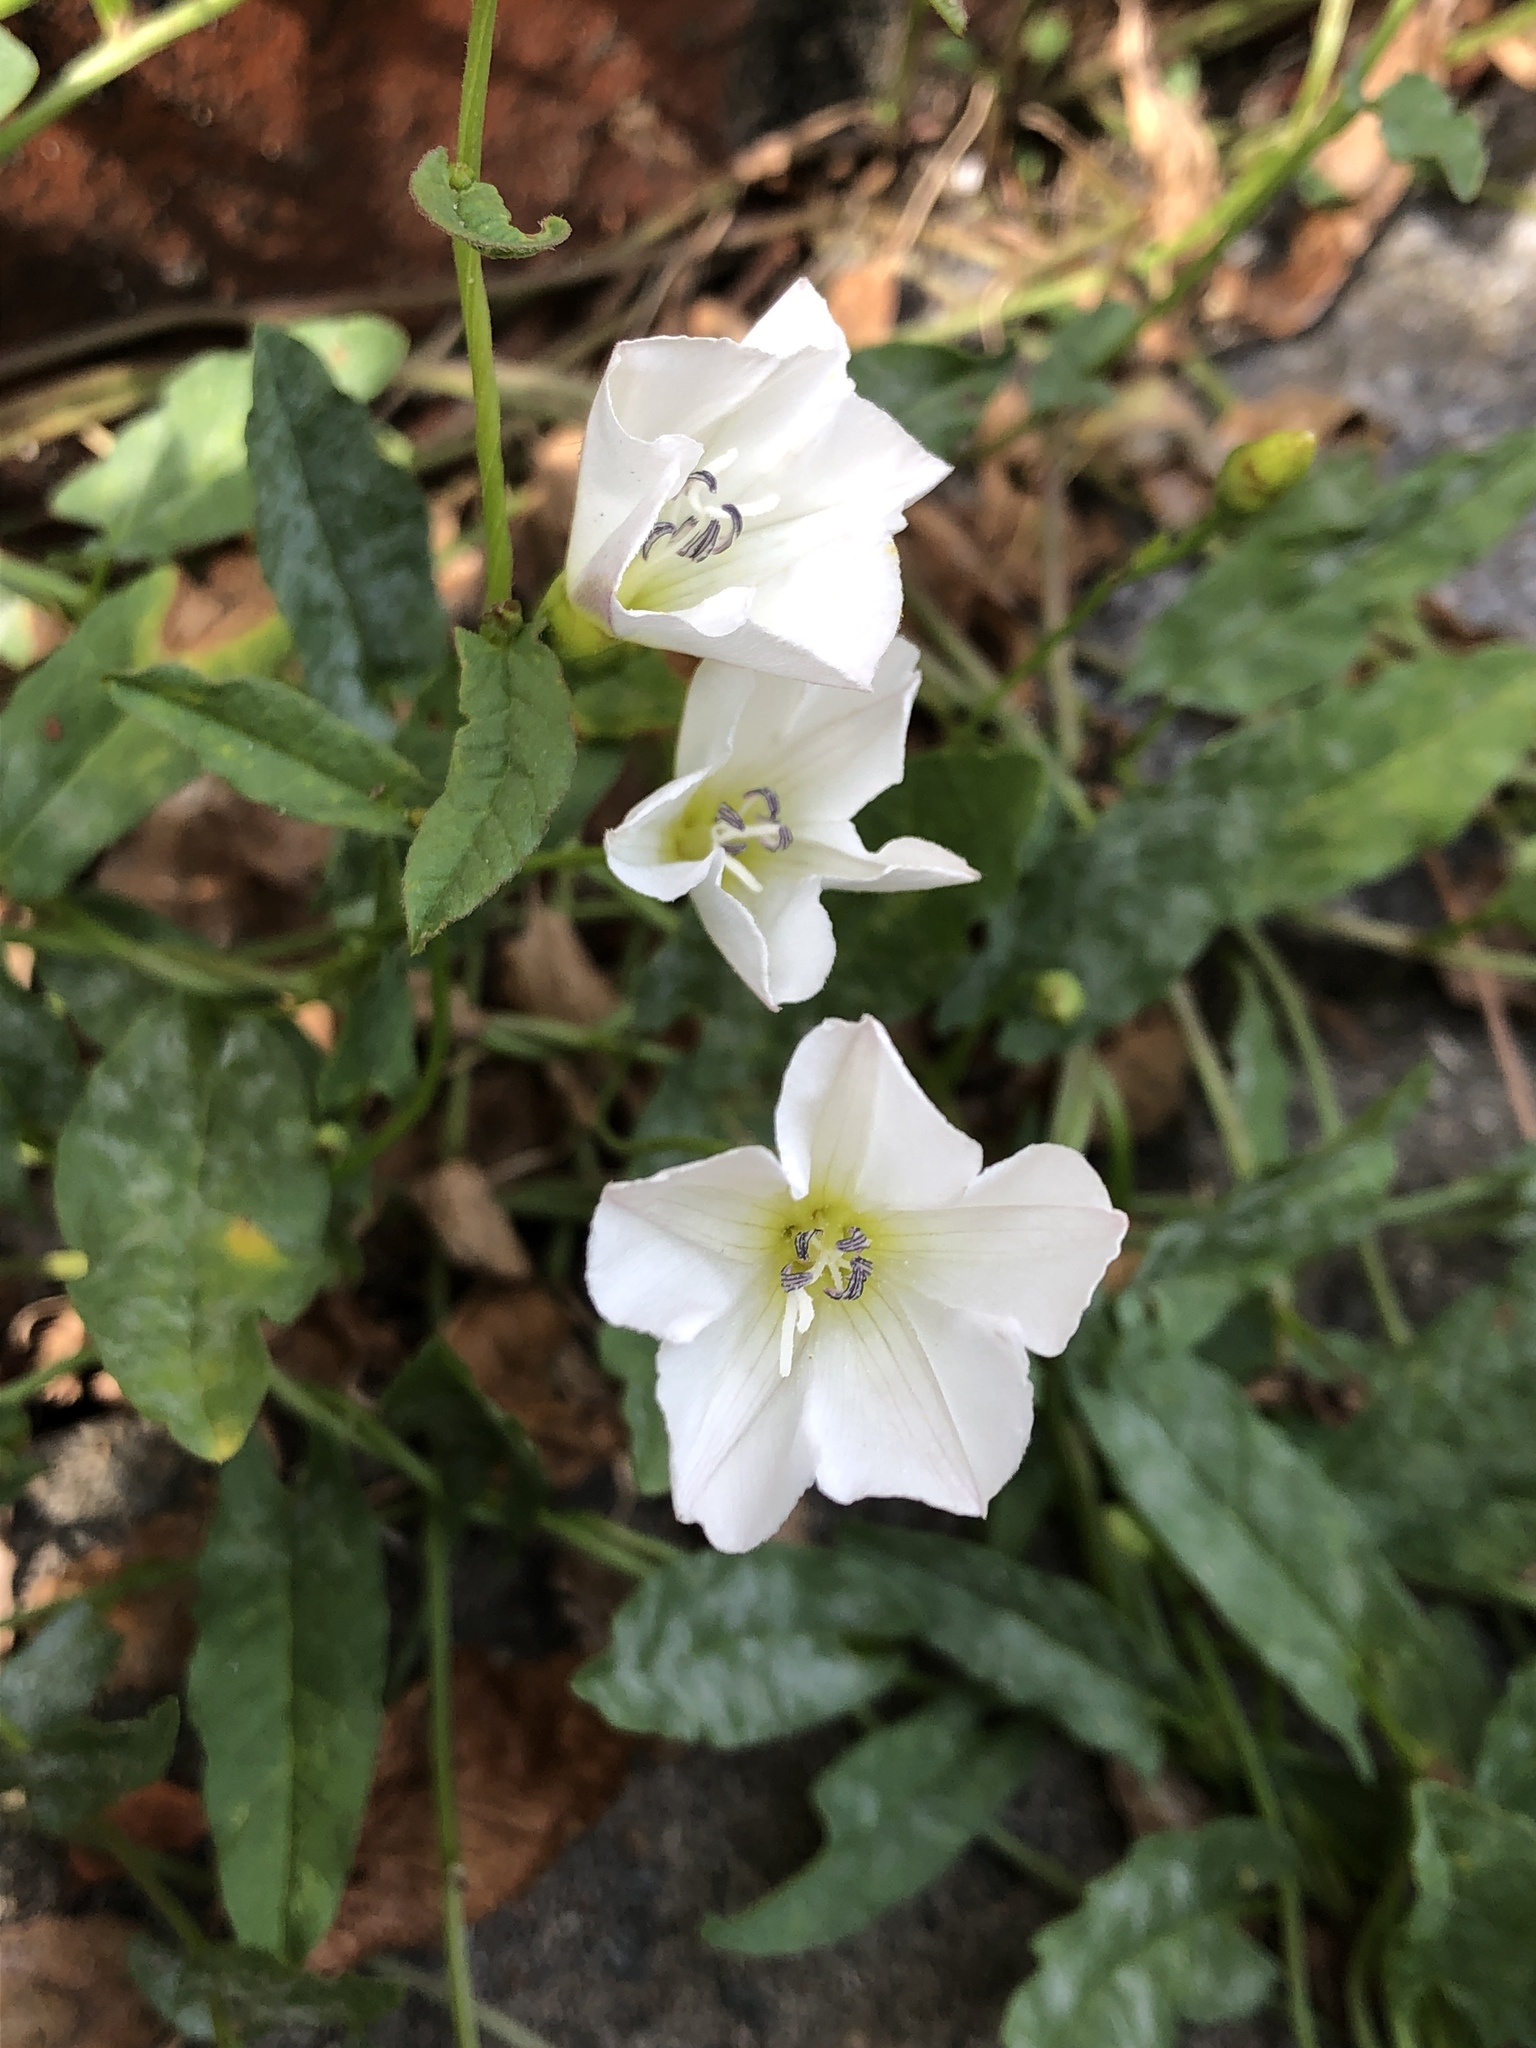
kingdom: Plantae
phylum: Tracheophyta
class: Magnoliopsida
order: Solanales
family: Convolvulaceae
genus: Convolvulus
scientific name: Convolvulus arvensis
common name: Field bindweed
